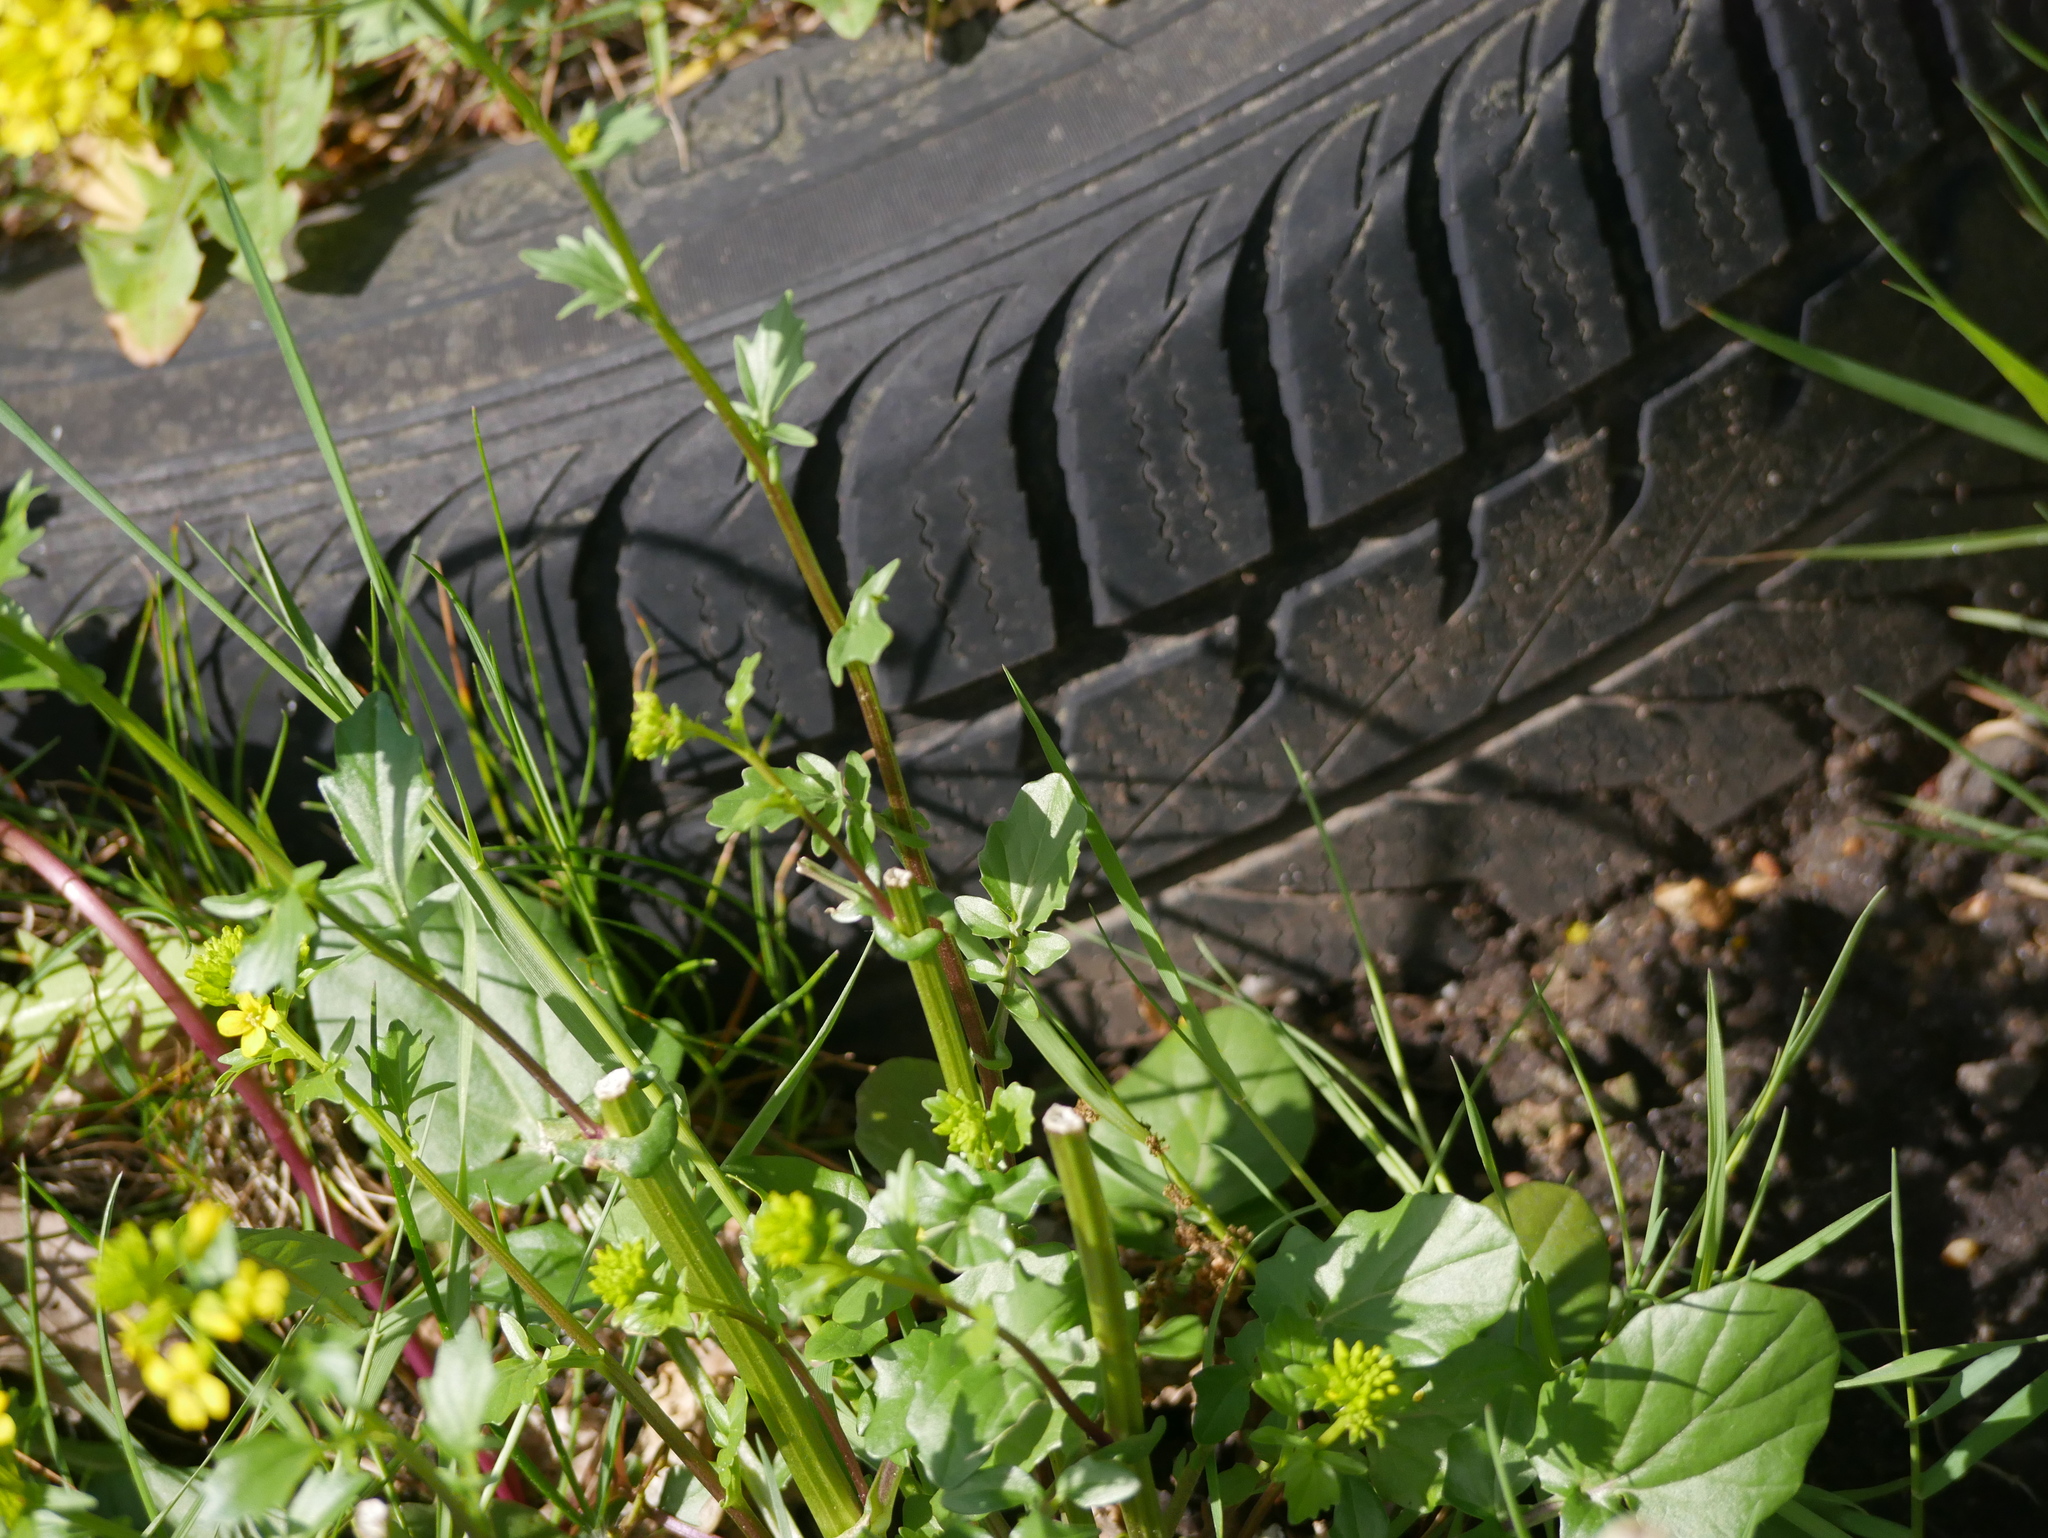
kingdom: Plantae
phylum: Tracheophyta
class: Magnoliopsida
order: Brassicales
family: Brassicaceae
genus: Barbarea
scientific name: Barbarea vulgaris
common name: Cressy-greens
